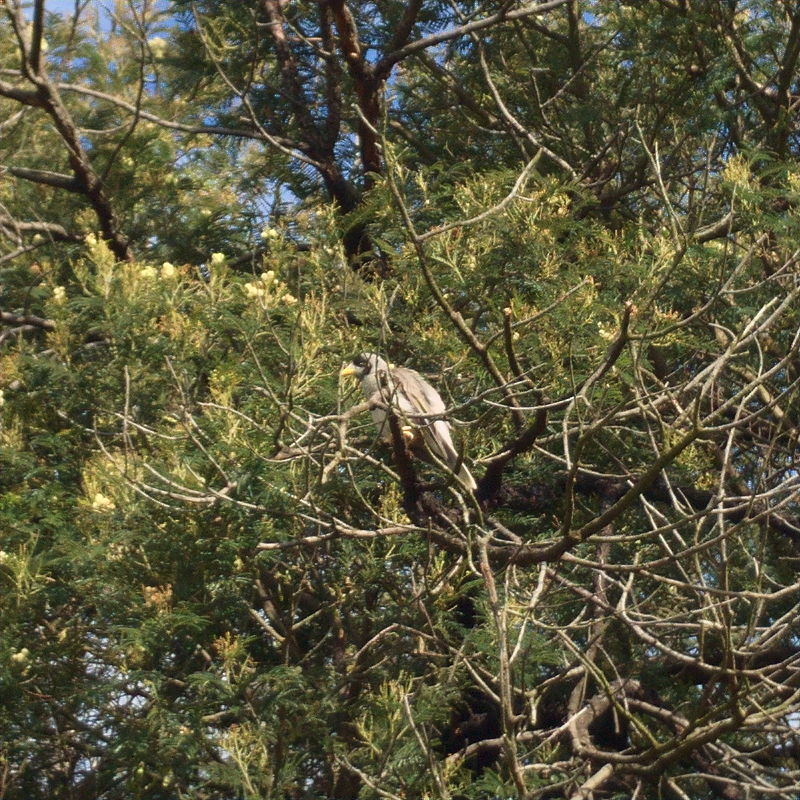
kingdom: Animalia
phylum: Chordata
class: Aves
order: Passeriformes
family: Meliphagidae
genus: Manorina
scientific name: Manorina melanocephala
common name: Noisy miner
